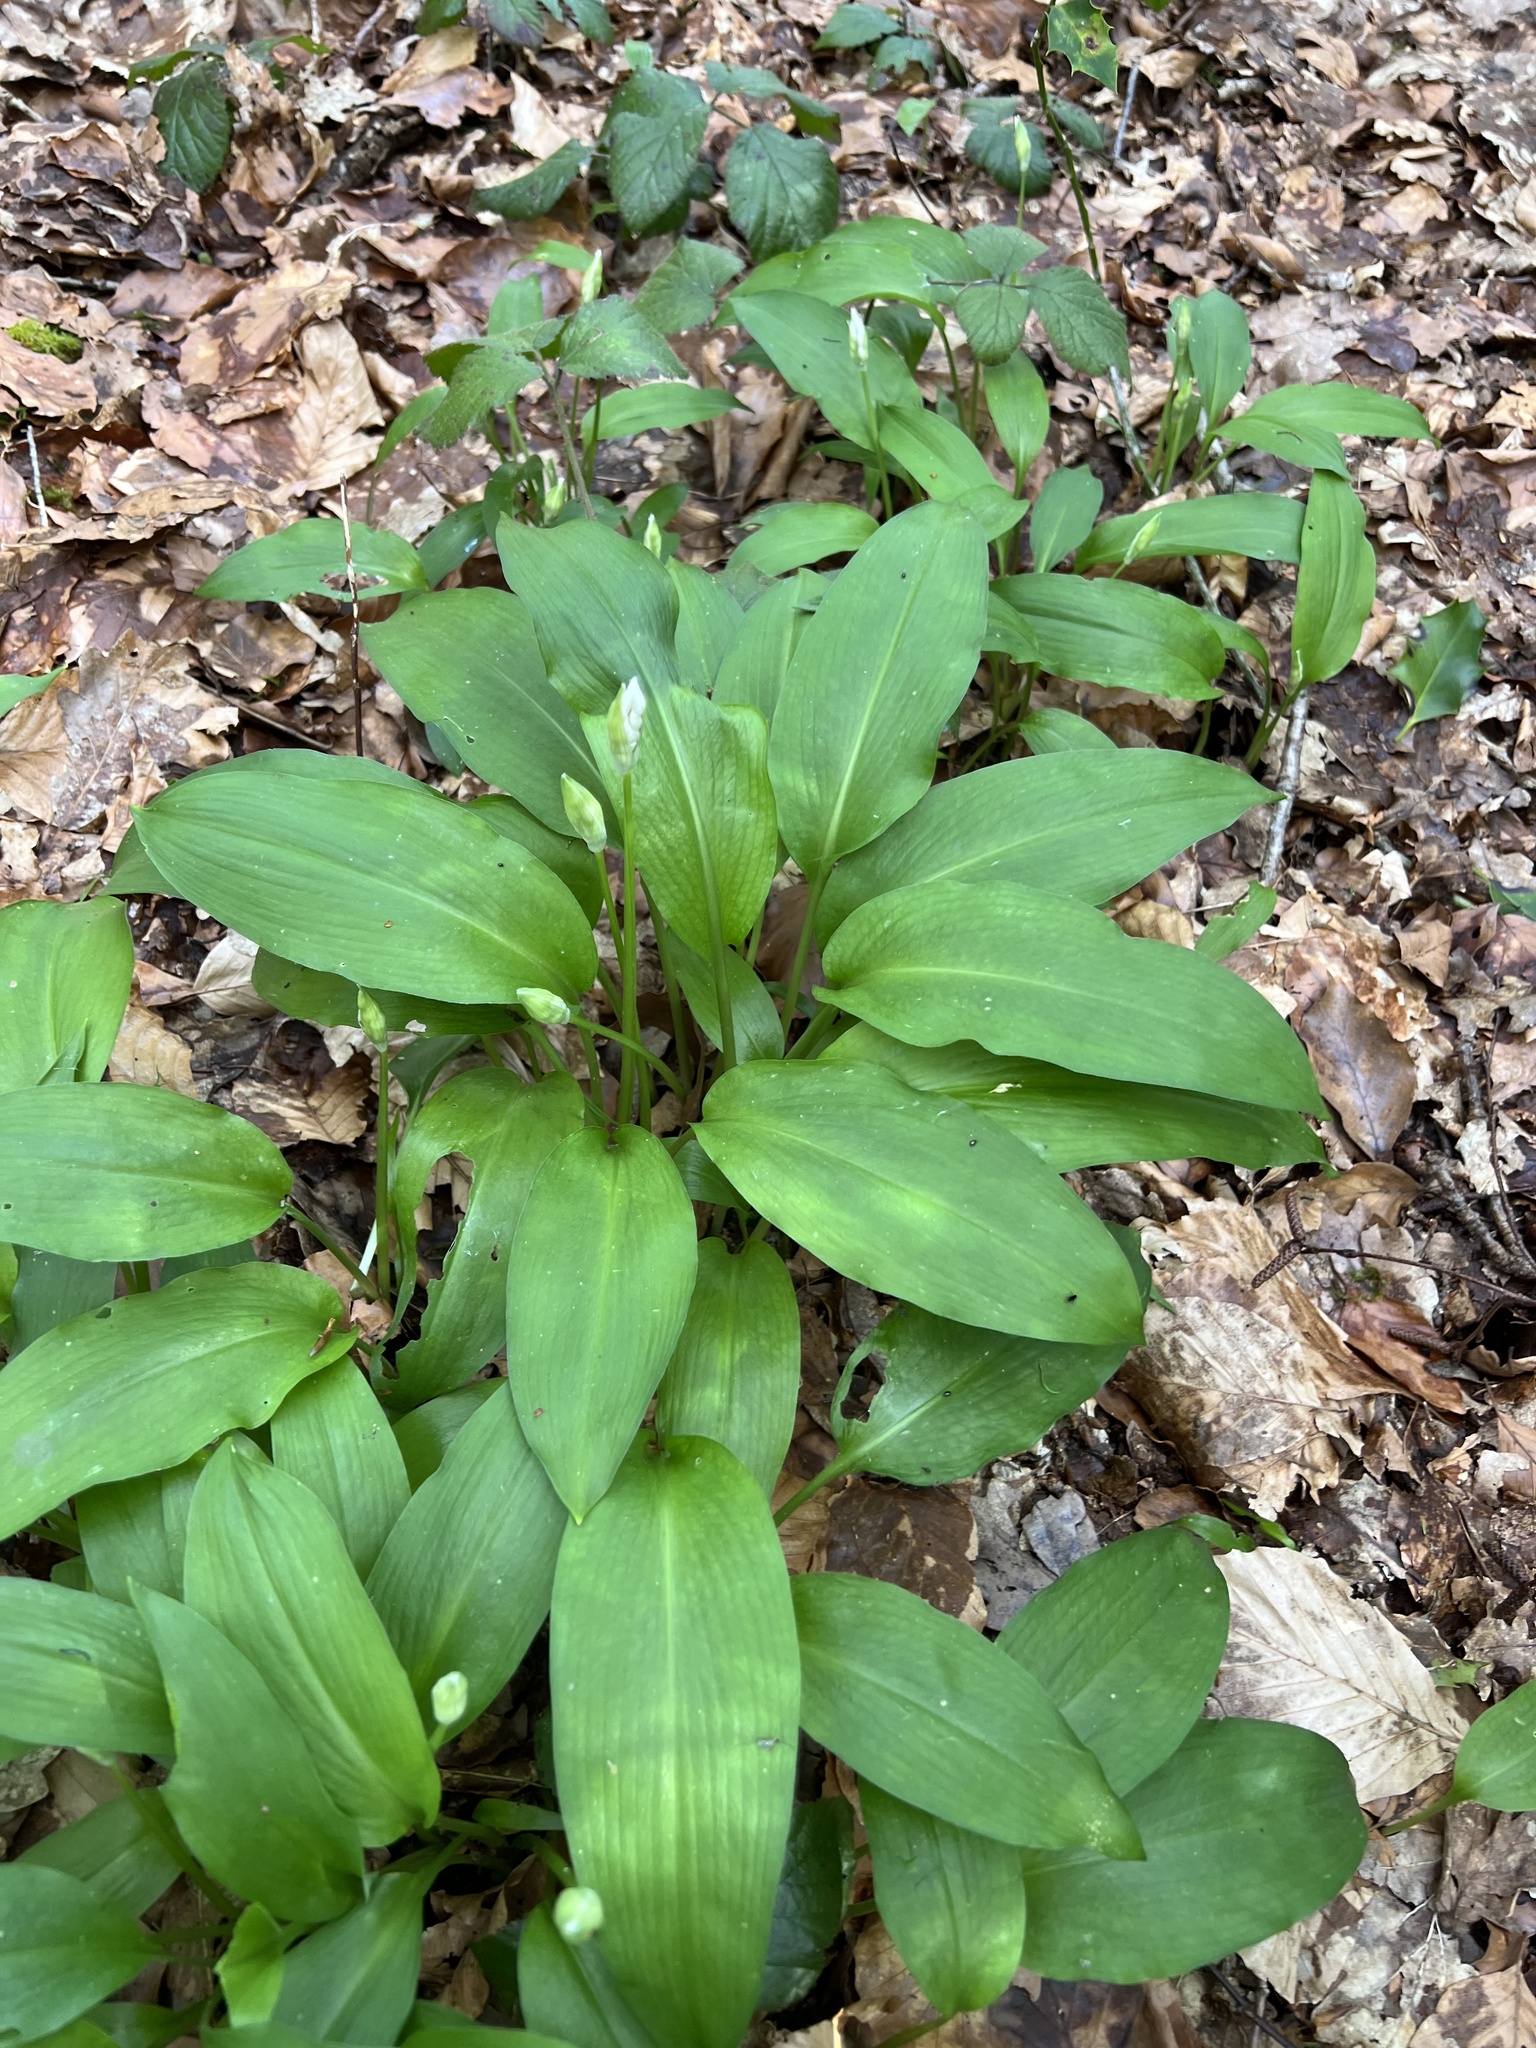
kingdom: Plantae
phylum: Tracheophyta
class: Liliopsida
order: Asparagales
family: Amaryllidaceae
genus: Allium
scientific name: Allium ursinum
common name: Ramsons
